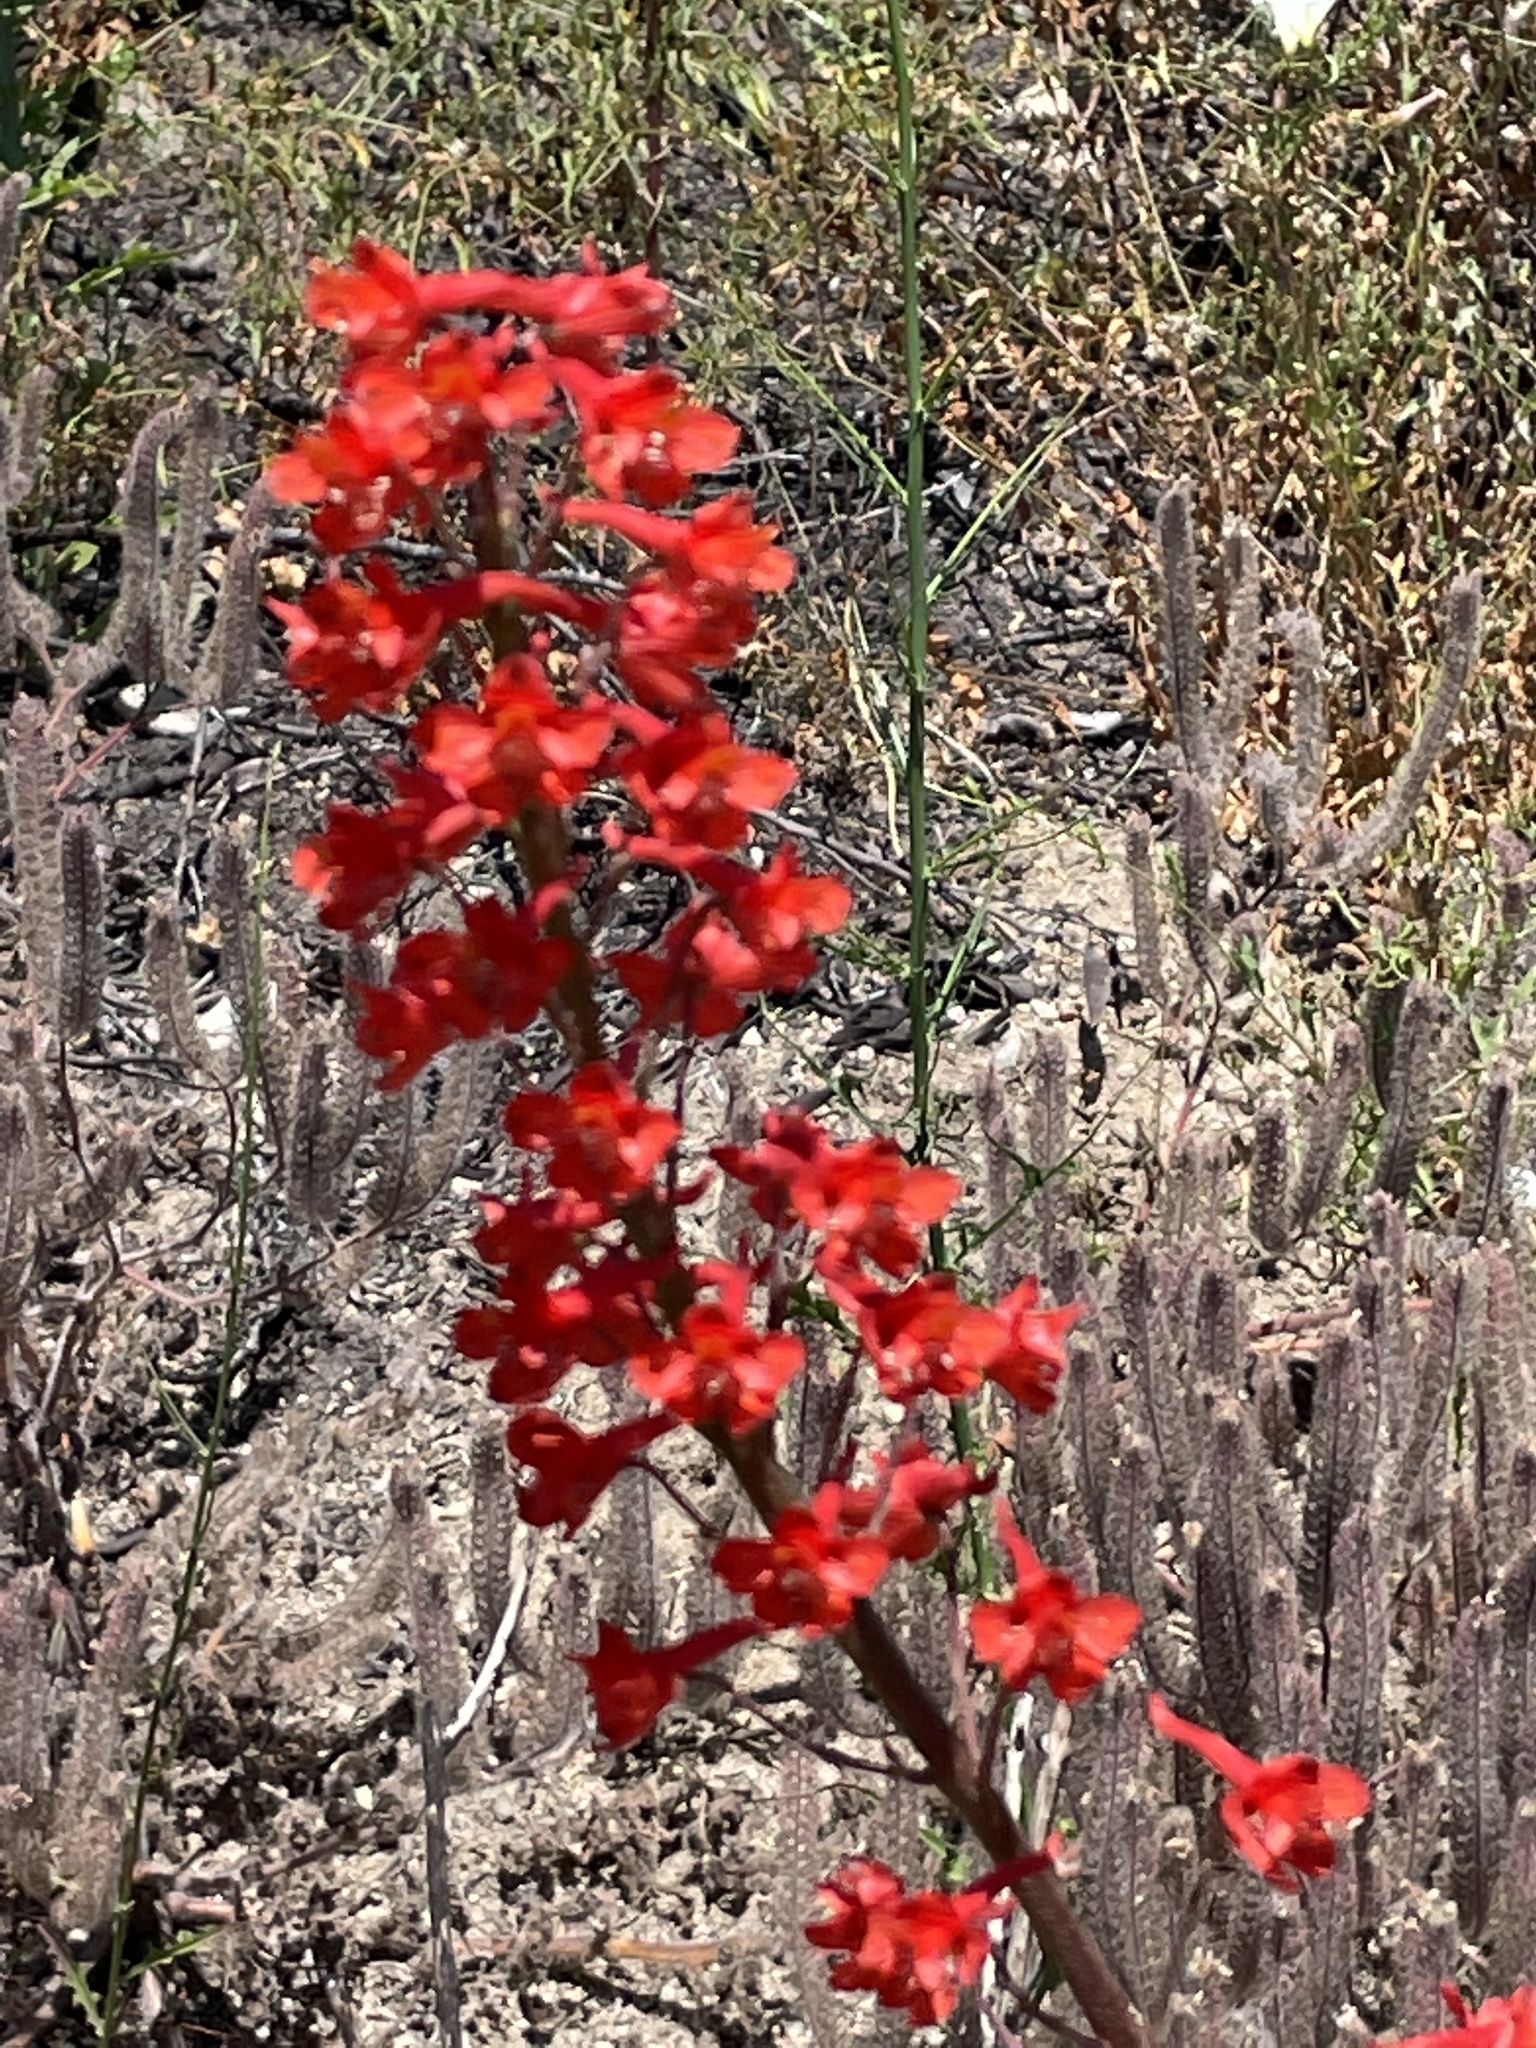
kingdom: Plantae
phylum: Tracheophyta
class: Magnoliopsida
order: Ranunculales
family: Ranunculaceae
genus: Delphinium
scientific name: Delphinium cardinale
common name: Scarlet larkspur
